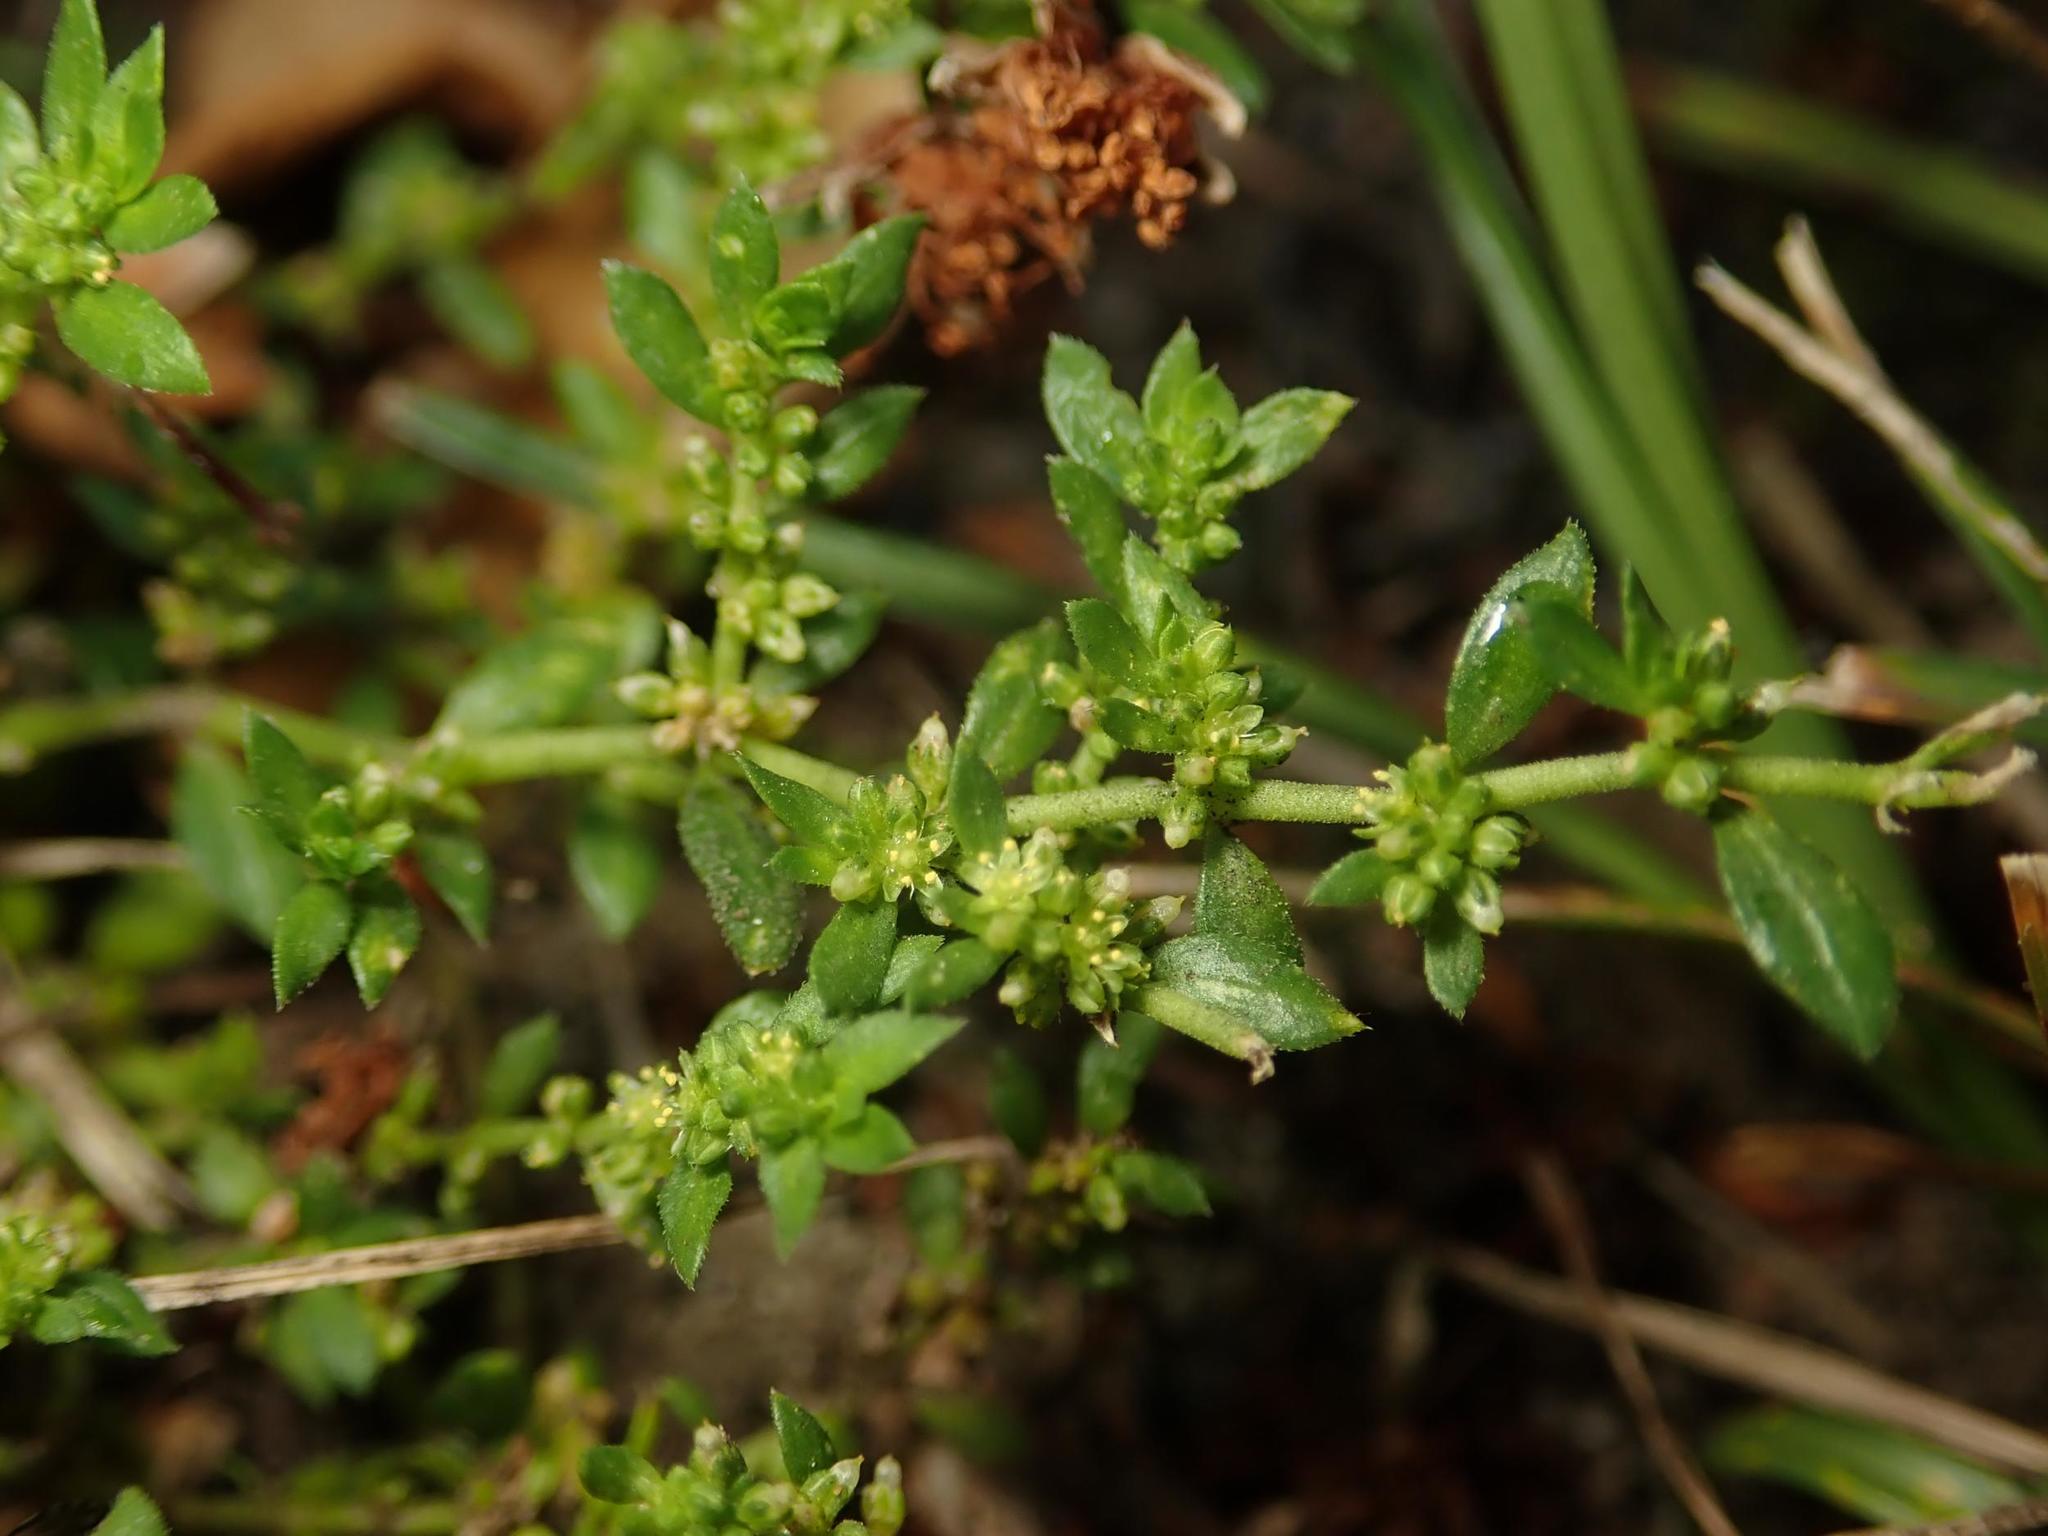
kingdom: Plantae
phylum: Tracheophyta
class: Magnoliopsida
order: Caryophyllales
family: Caryophyllaceae
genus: Herniaria
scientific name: Herniaria glabra
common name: Smooth rupturewort
